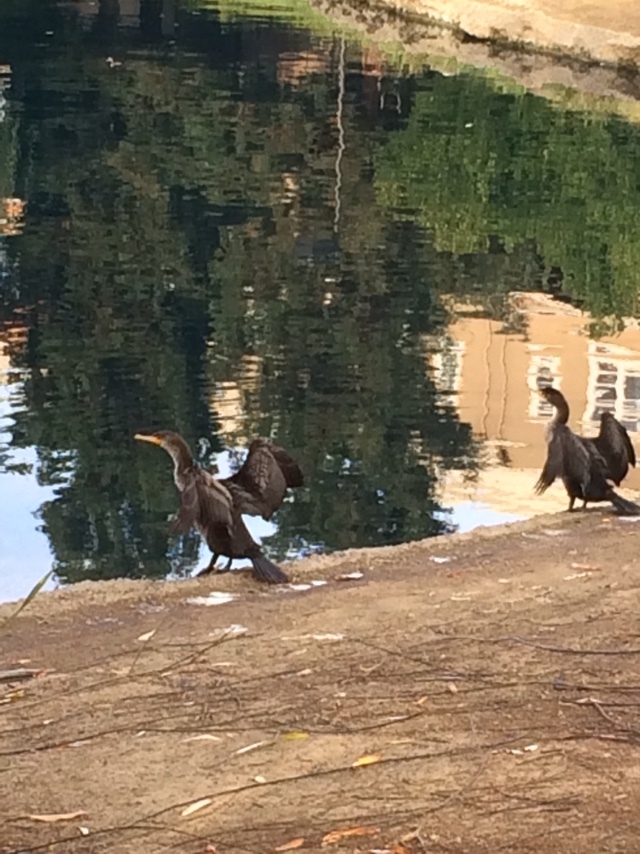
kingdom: Animalia
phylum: Chordata
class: Aves
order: Suliformes
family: Phalacrocoracidae
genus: Phalacrocorax
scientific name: Phalacrocorax auritus
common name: Double-crested cormorant
